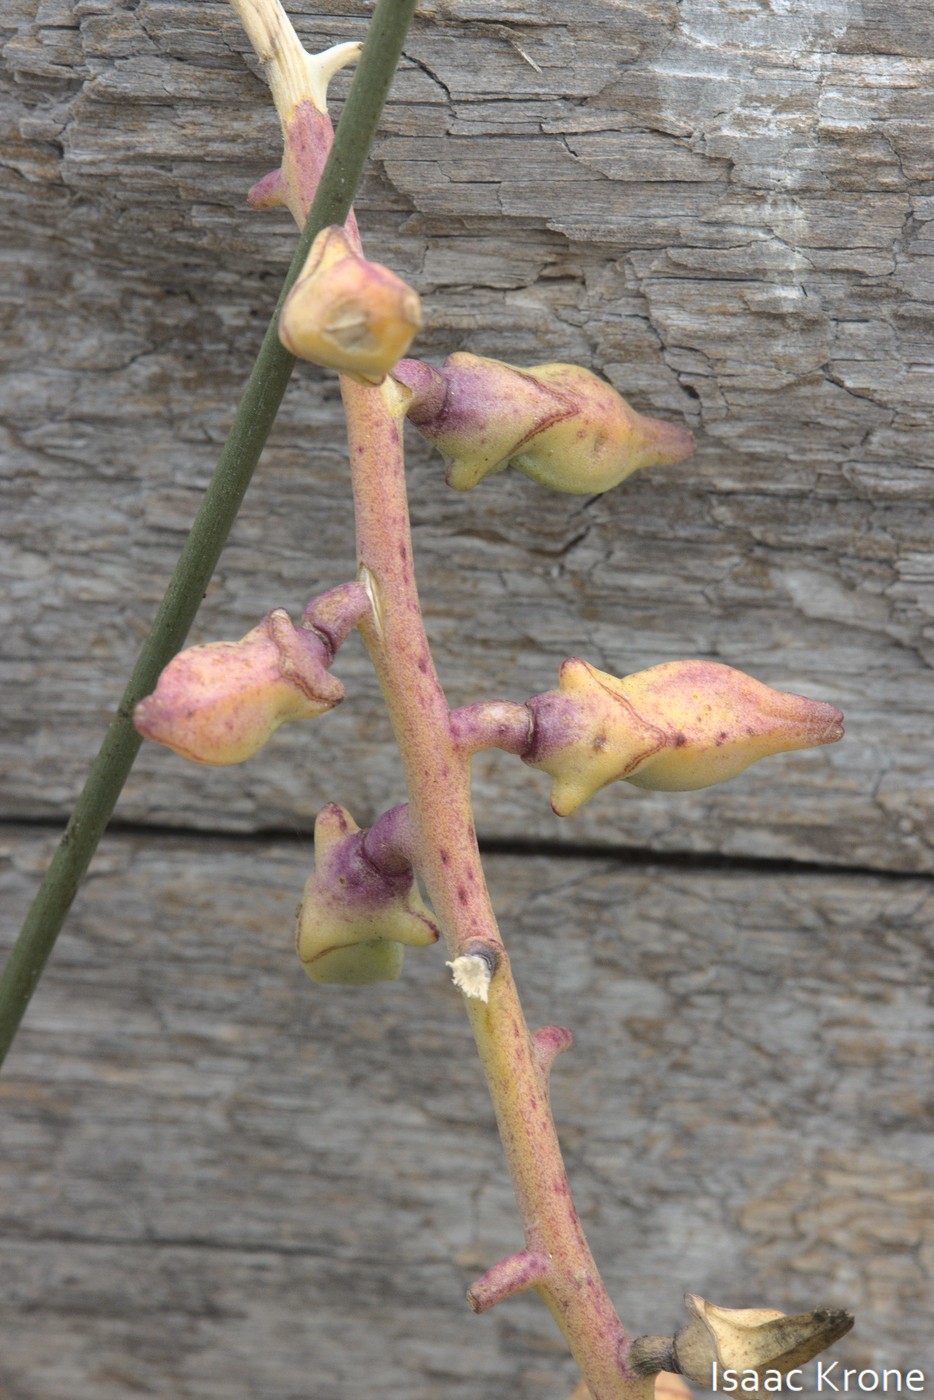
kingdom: Plantae
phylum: Tracheophyta
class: Magnoliopsida
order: Brassicales
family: Brassicaceae
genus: Cakile
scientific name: Cakile maritima
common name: Sea rocket
